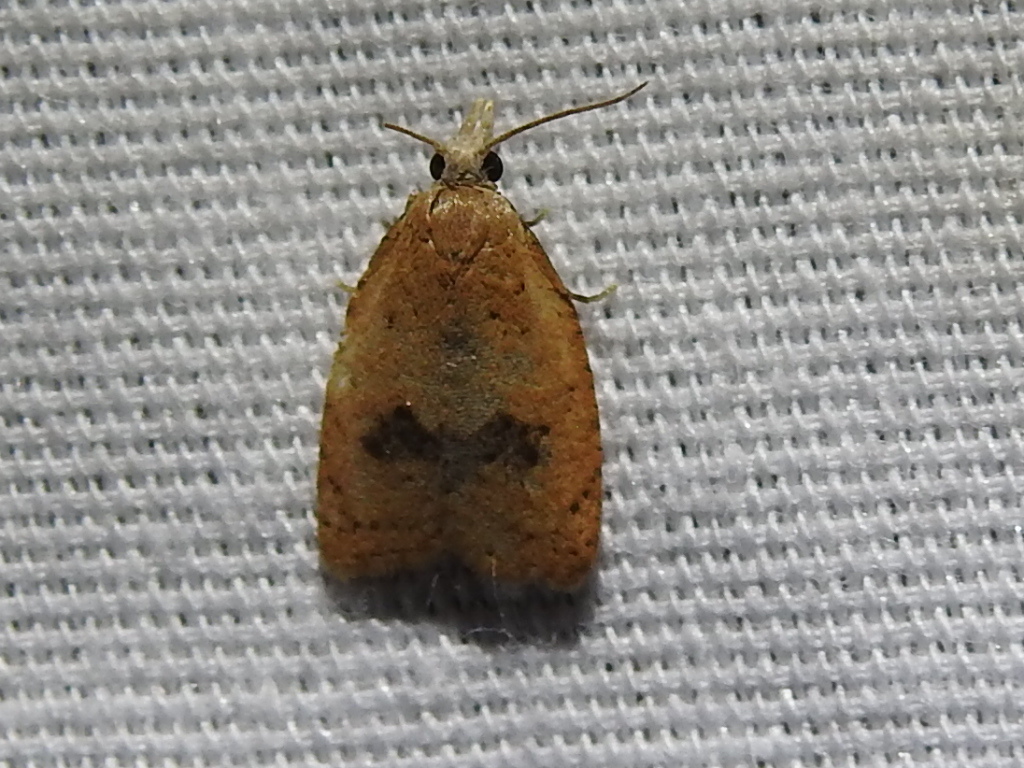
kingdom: Animalia
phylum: Arthropoda
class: Insecta
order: Lepidoptera
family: Tortricidae
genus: Sparganothoides
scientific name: Sparganothoides lentiginosana
